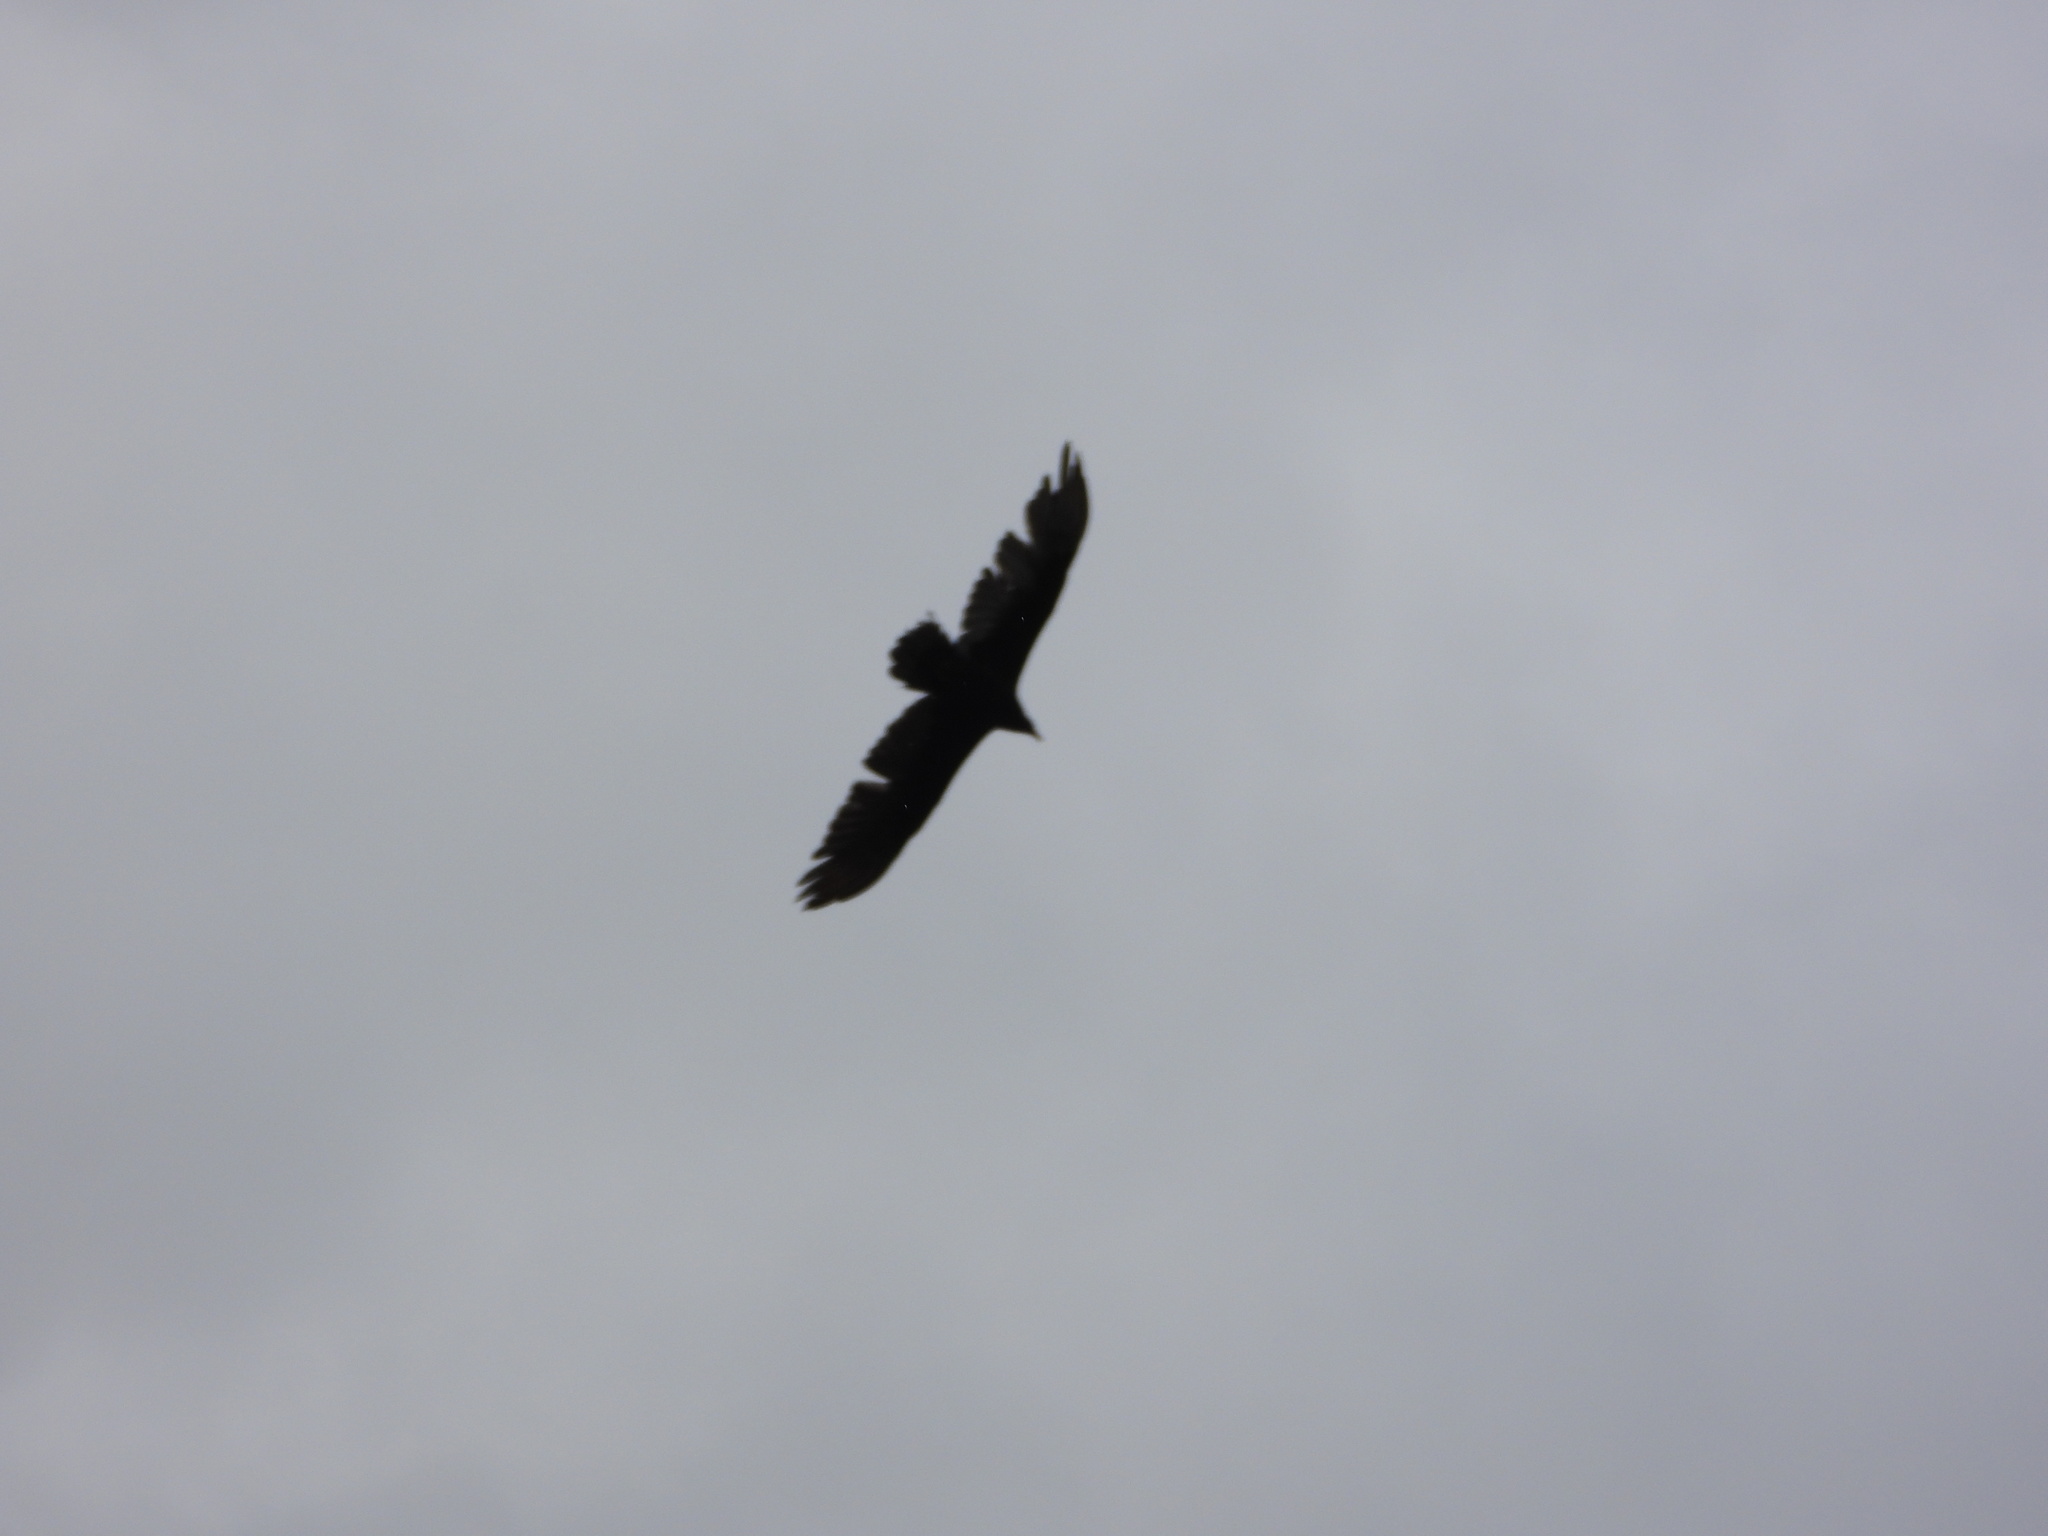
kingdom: Animalia
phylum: Chordata
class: Aves
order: Accipitriformes
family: Cathartidae
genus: Cathartes
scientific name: Cathartes aura
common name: Turkey vulture
